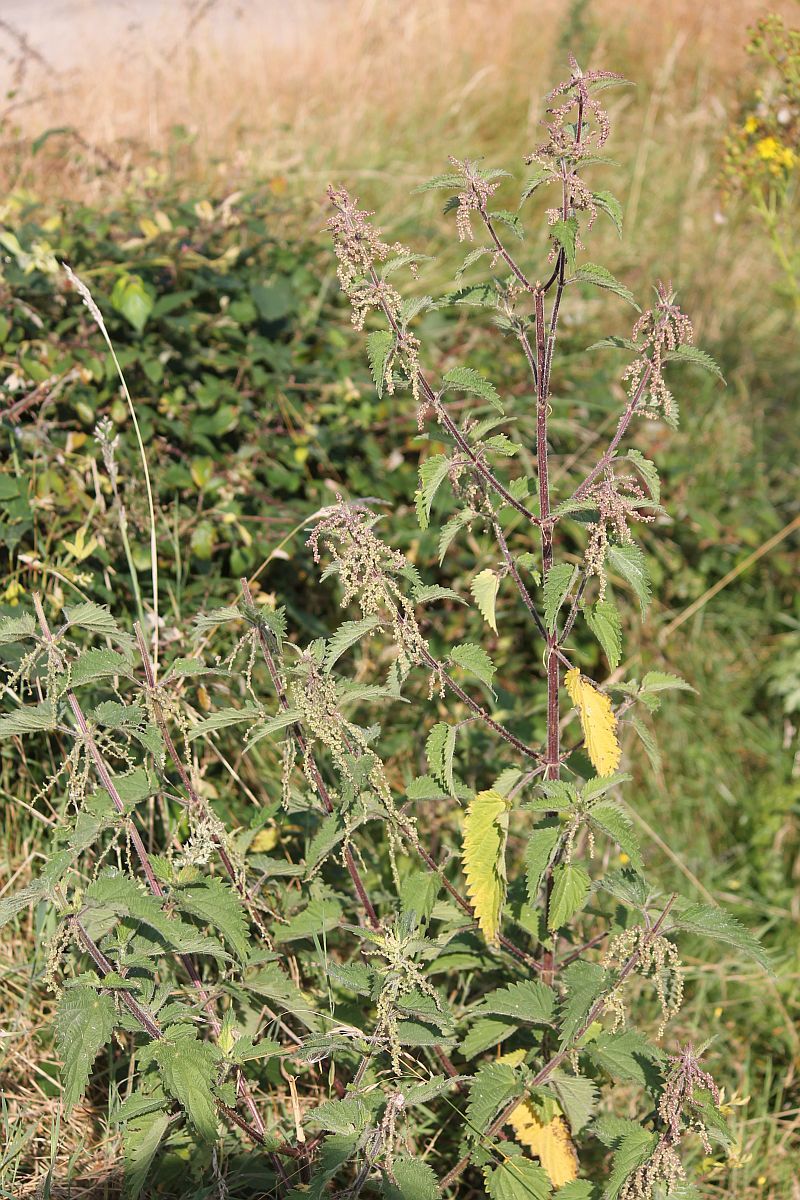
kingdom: Plantae
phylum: Tracheophyta
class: Magnoliopsida
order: Rosales
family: Urticaceae
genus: Urtica
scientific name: Urtica dioica
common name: Common nettle
